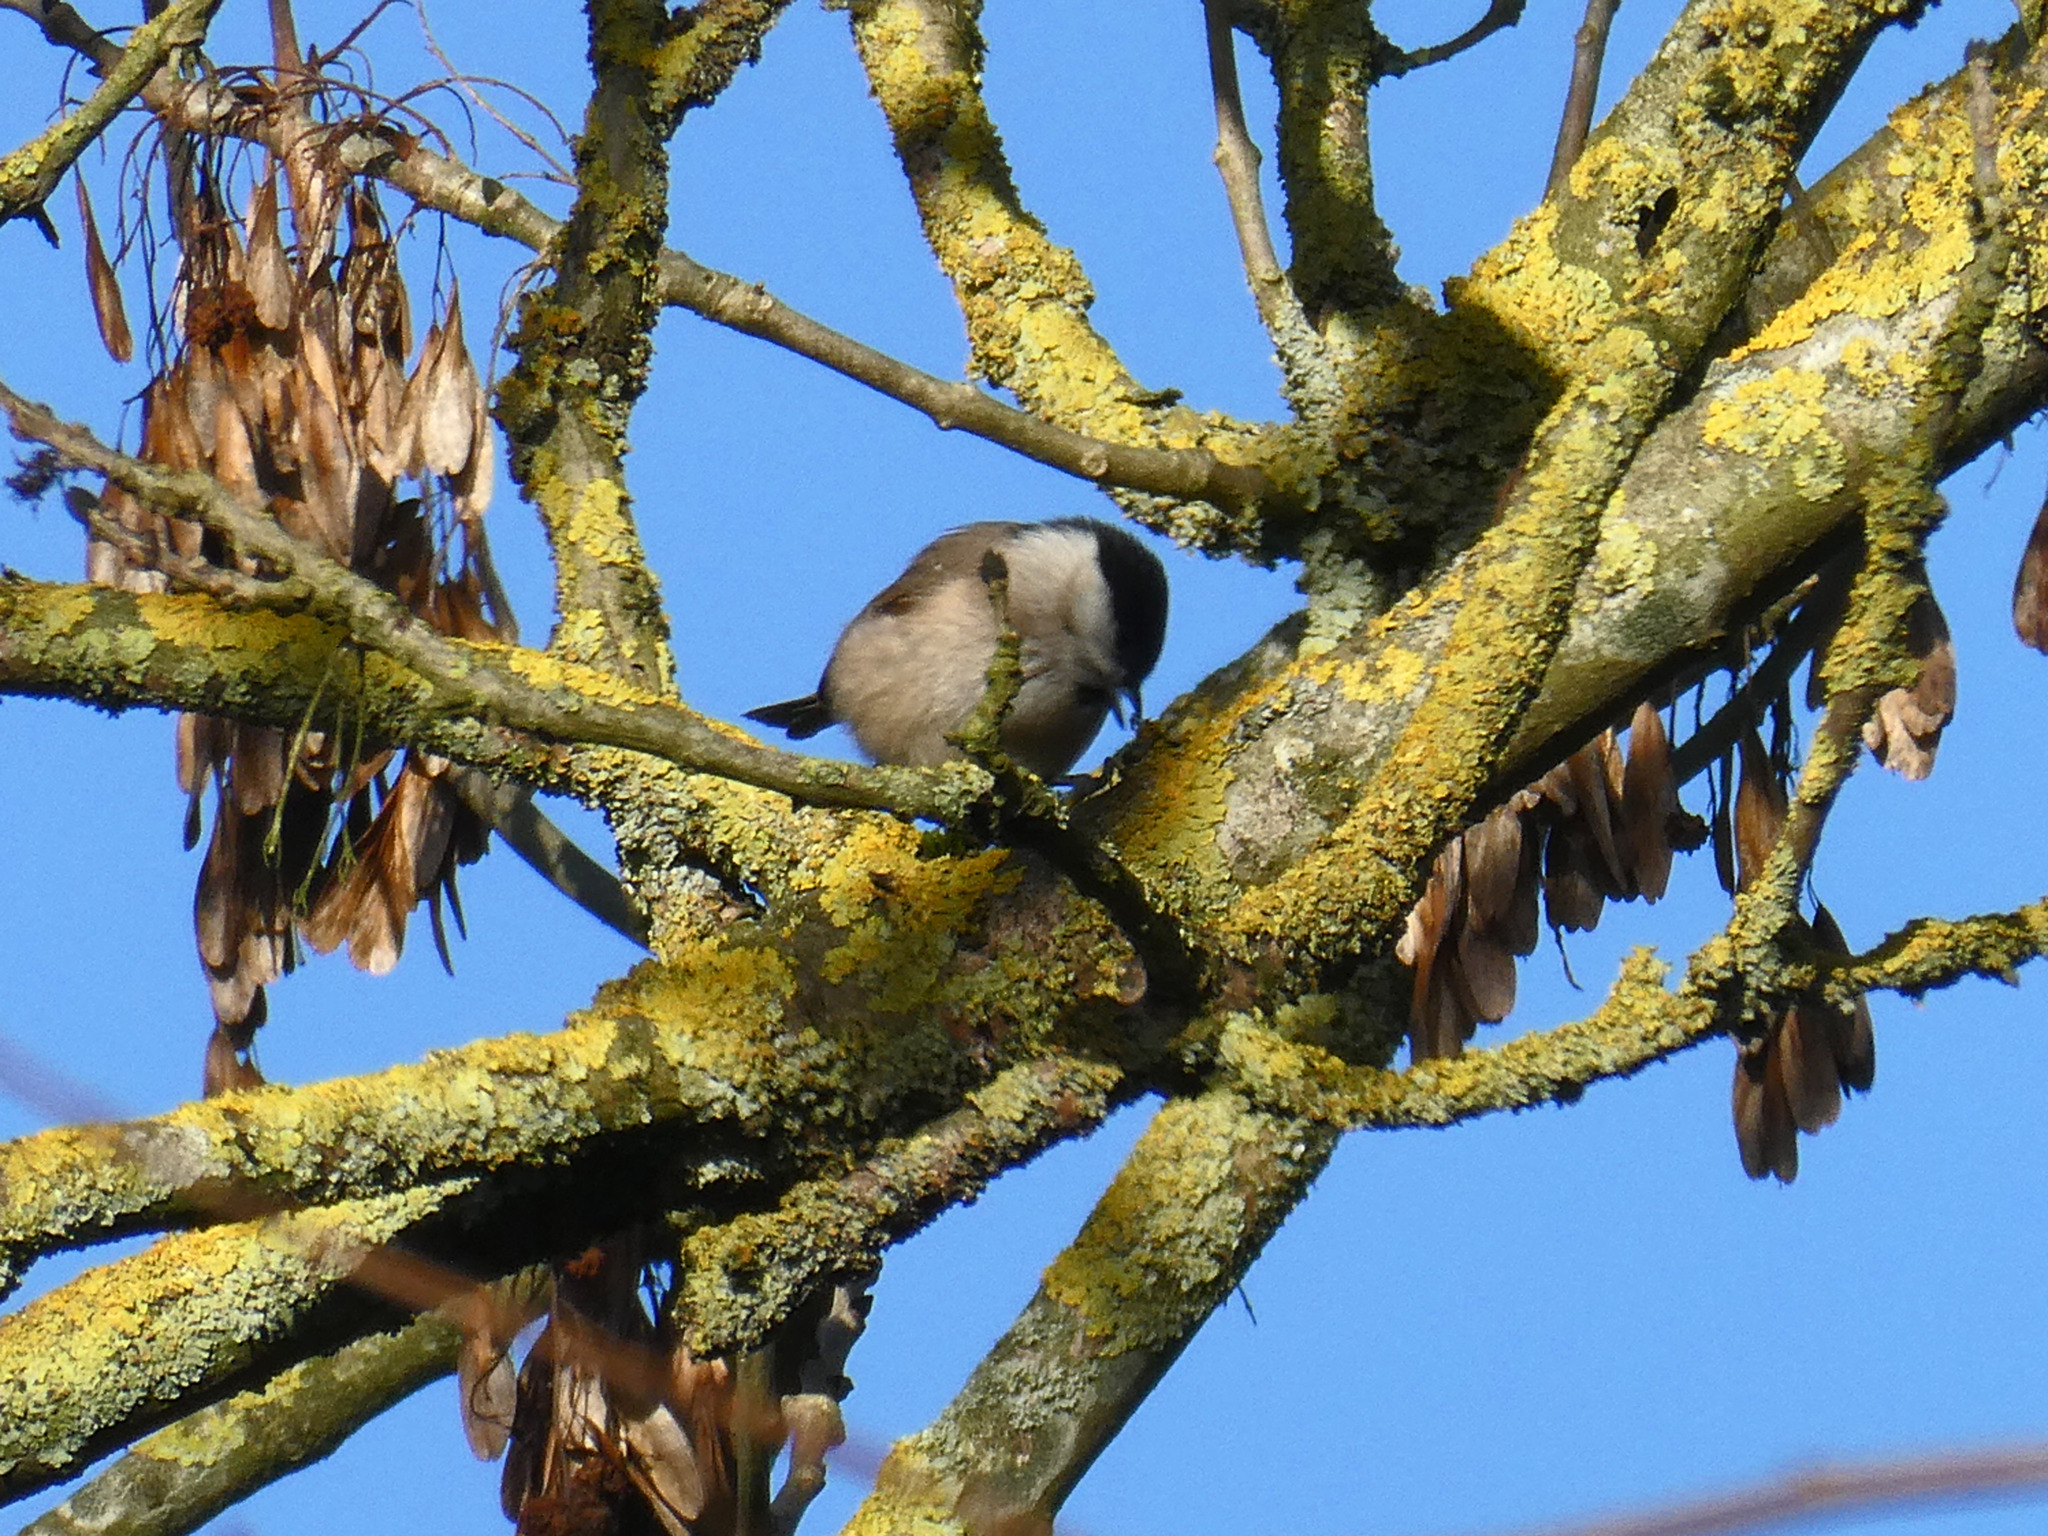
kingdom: Animalia
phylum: Chordata
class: Aves
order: Passeriformes
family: Paridae
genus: Poecile
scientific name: Poecile palustris
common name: Marsh tit
